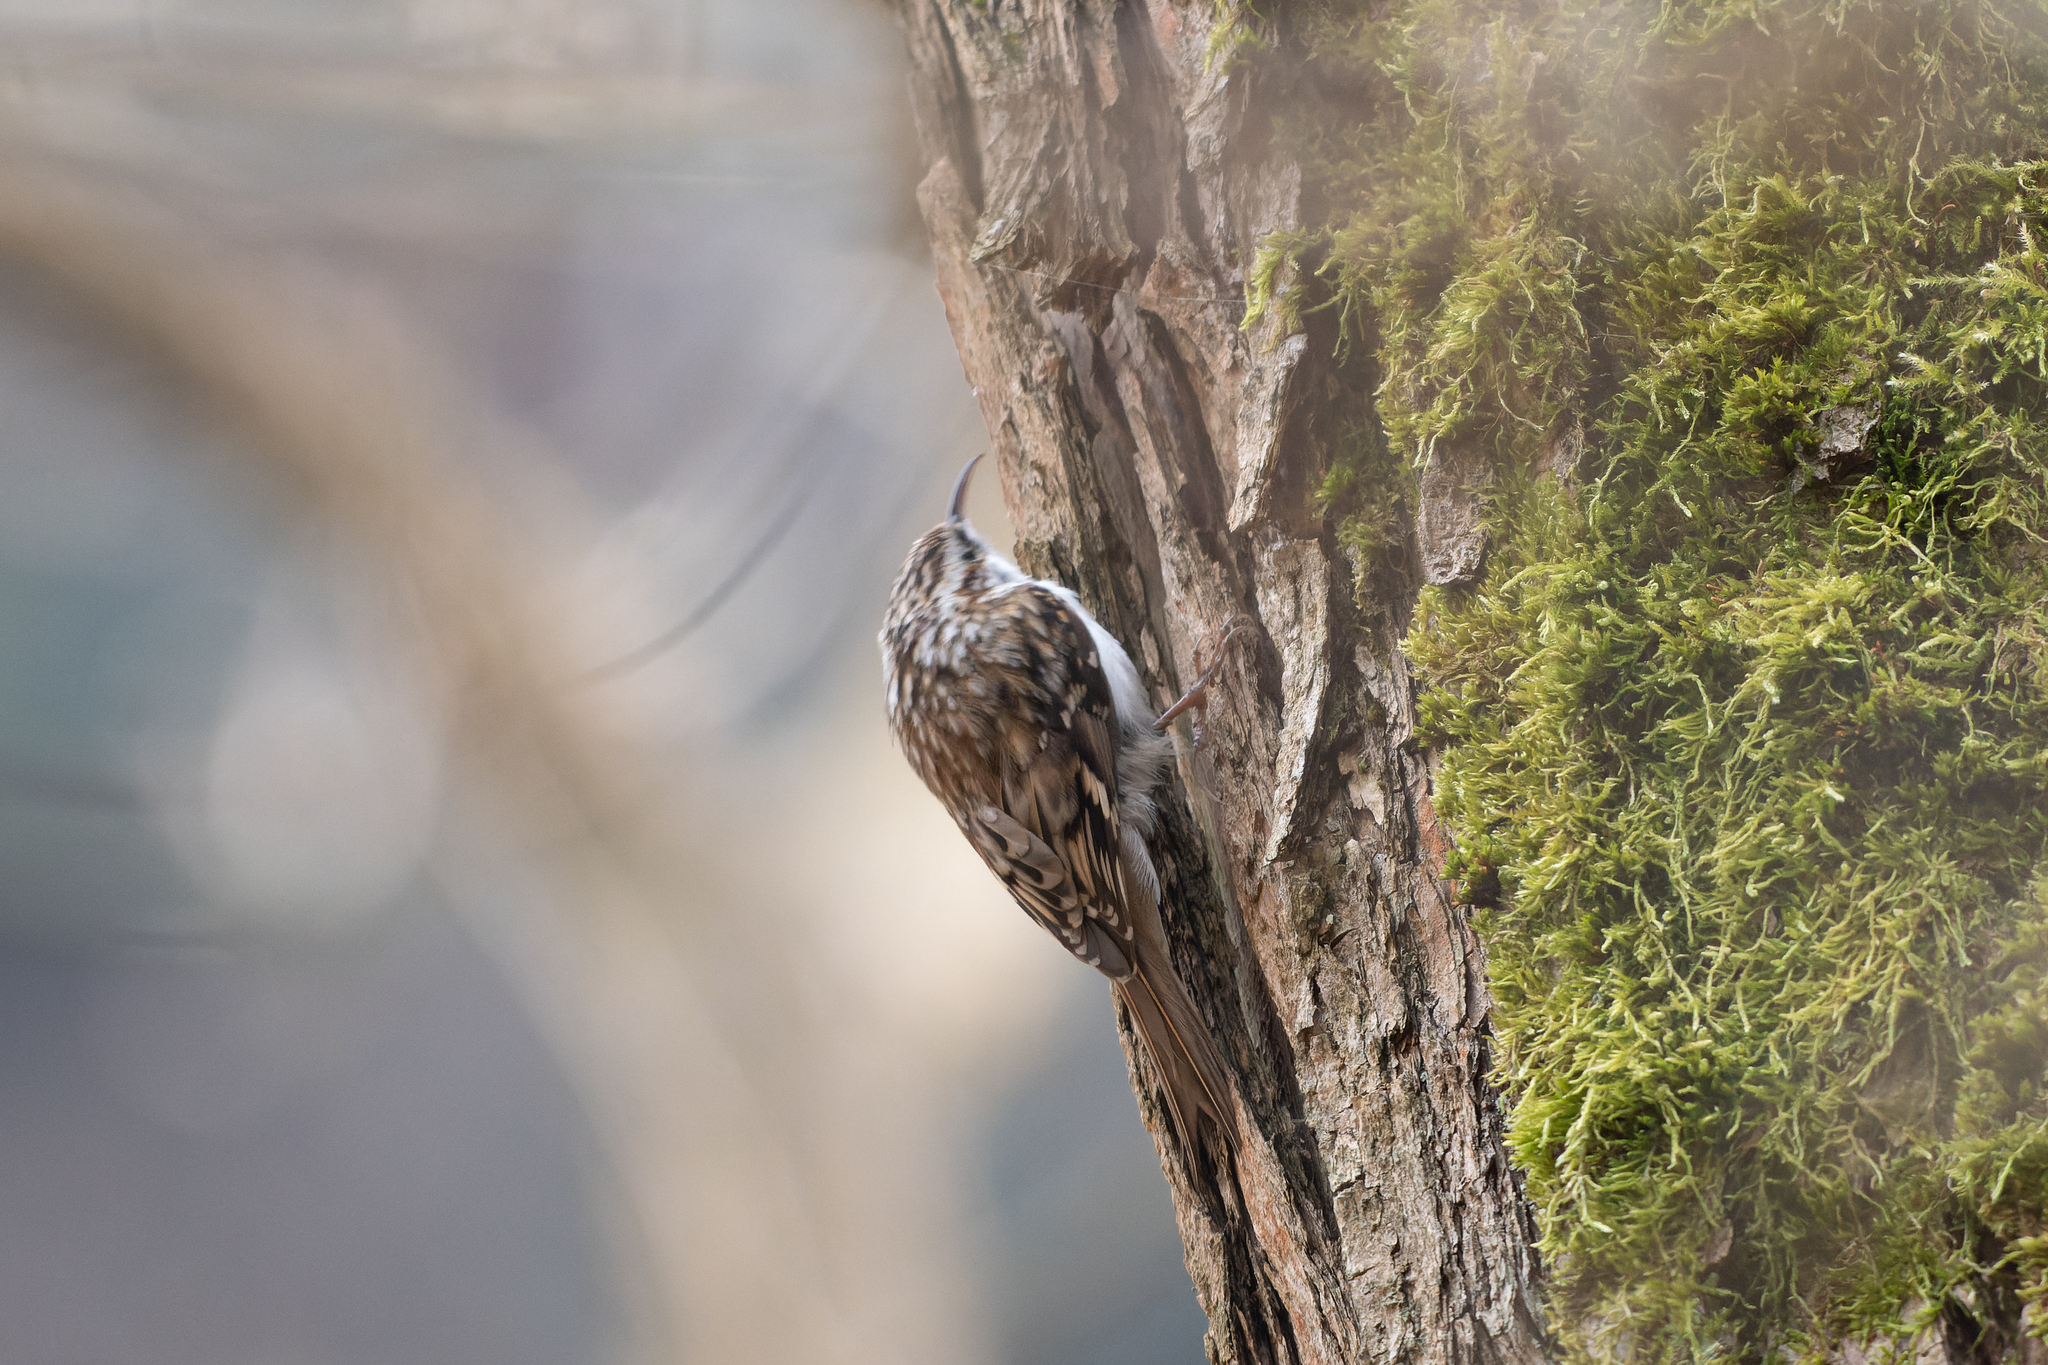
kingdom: Animalia
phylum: Chordata
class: Aves
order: Passeriformes
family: Certhiidae
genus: Certhia
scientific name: Certhia familiaris
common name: Eurasian treecreeper
